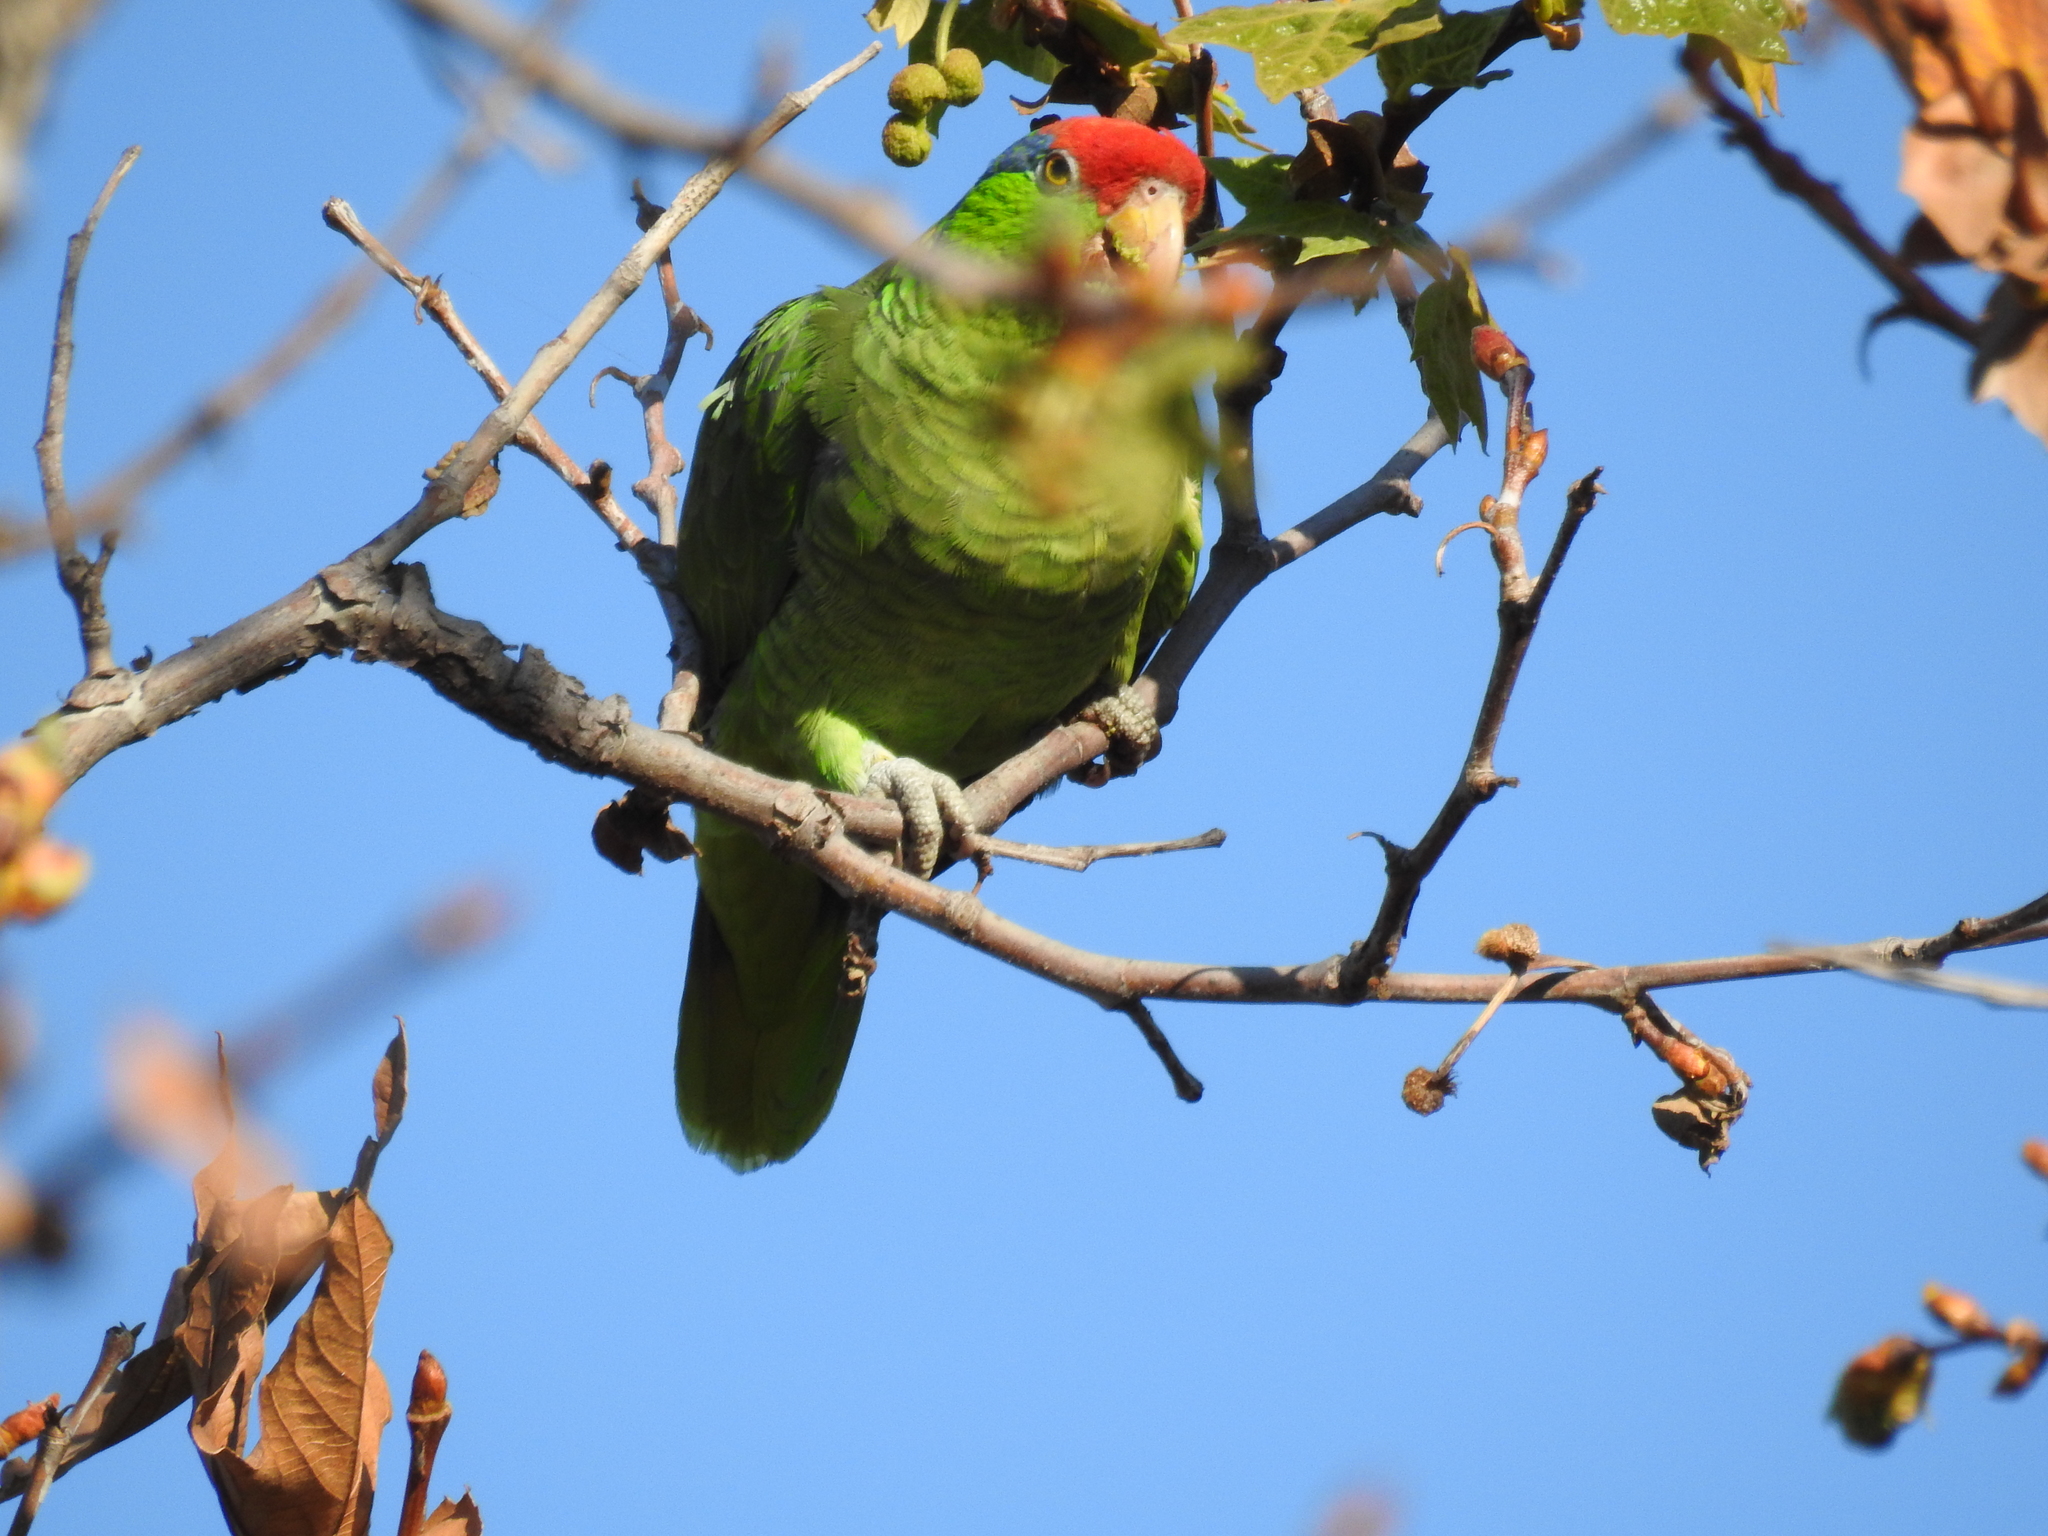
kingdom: Animalia
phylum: Chordata
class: Aves
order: Psittaciformes
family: Psittacidae
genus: Amazona
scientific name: Amazona viridigenalis
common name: Red-crowned amazon
